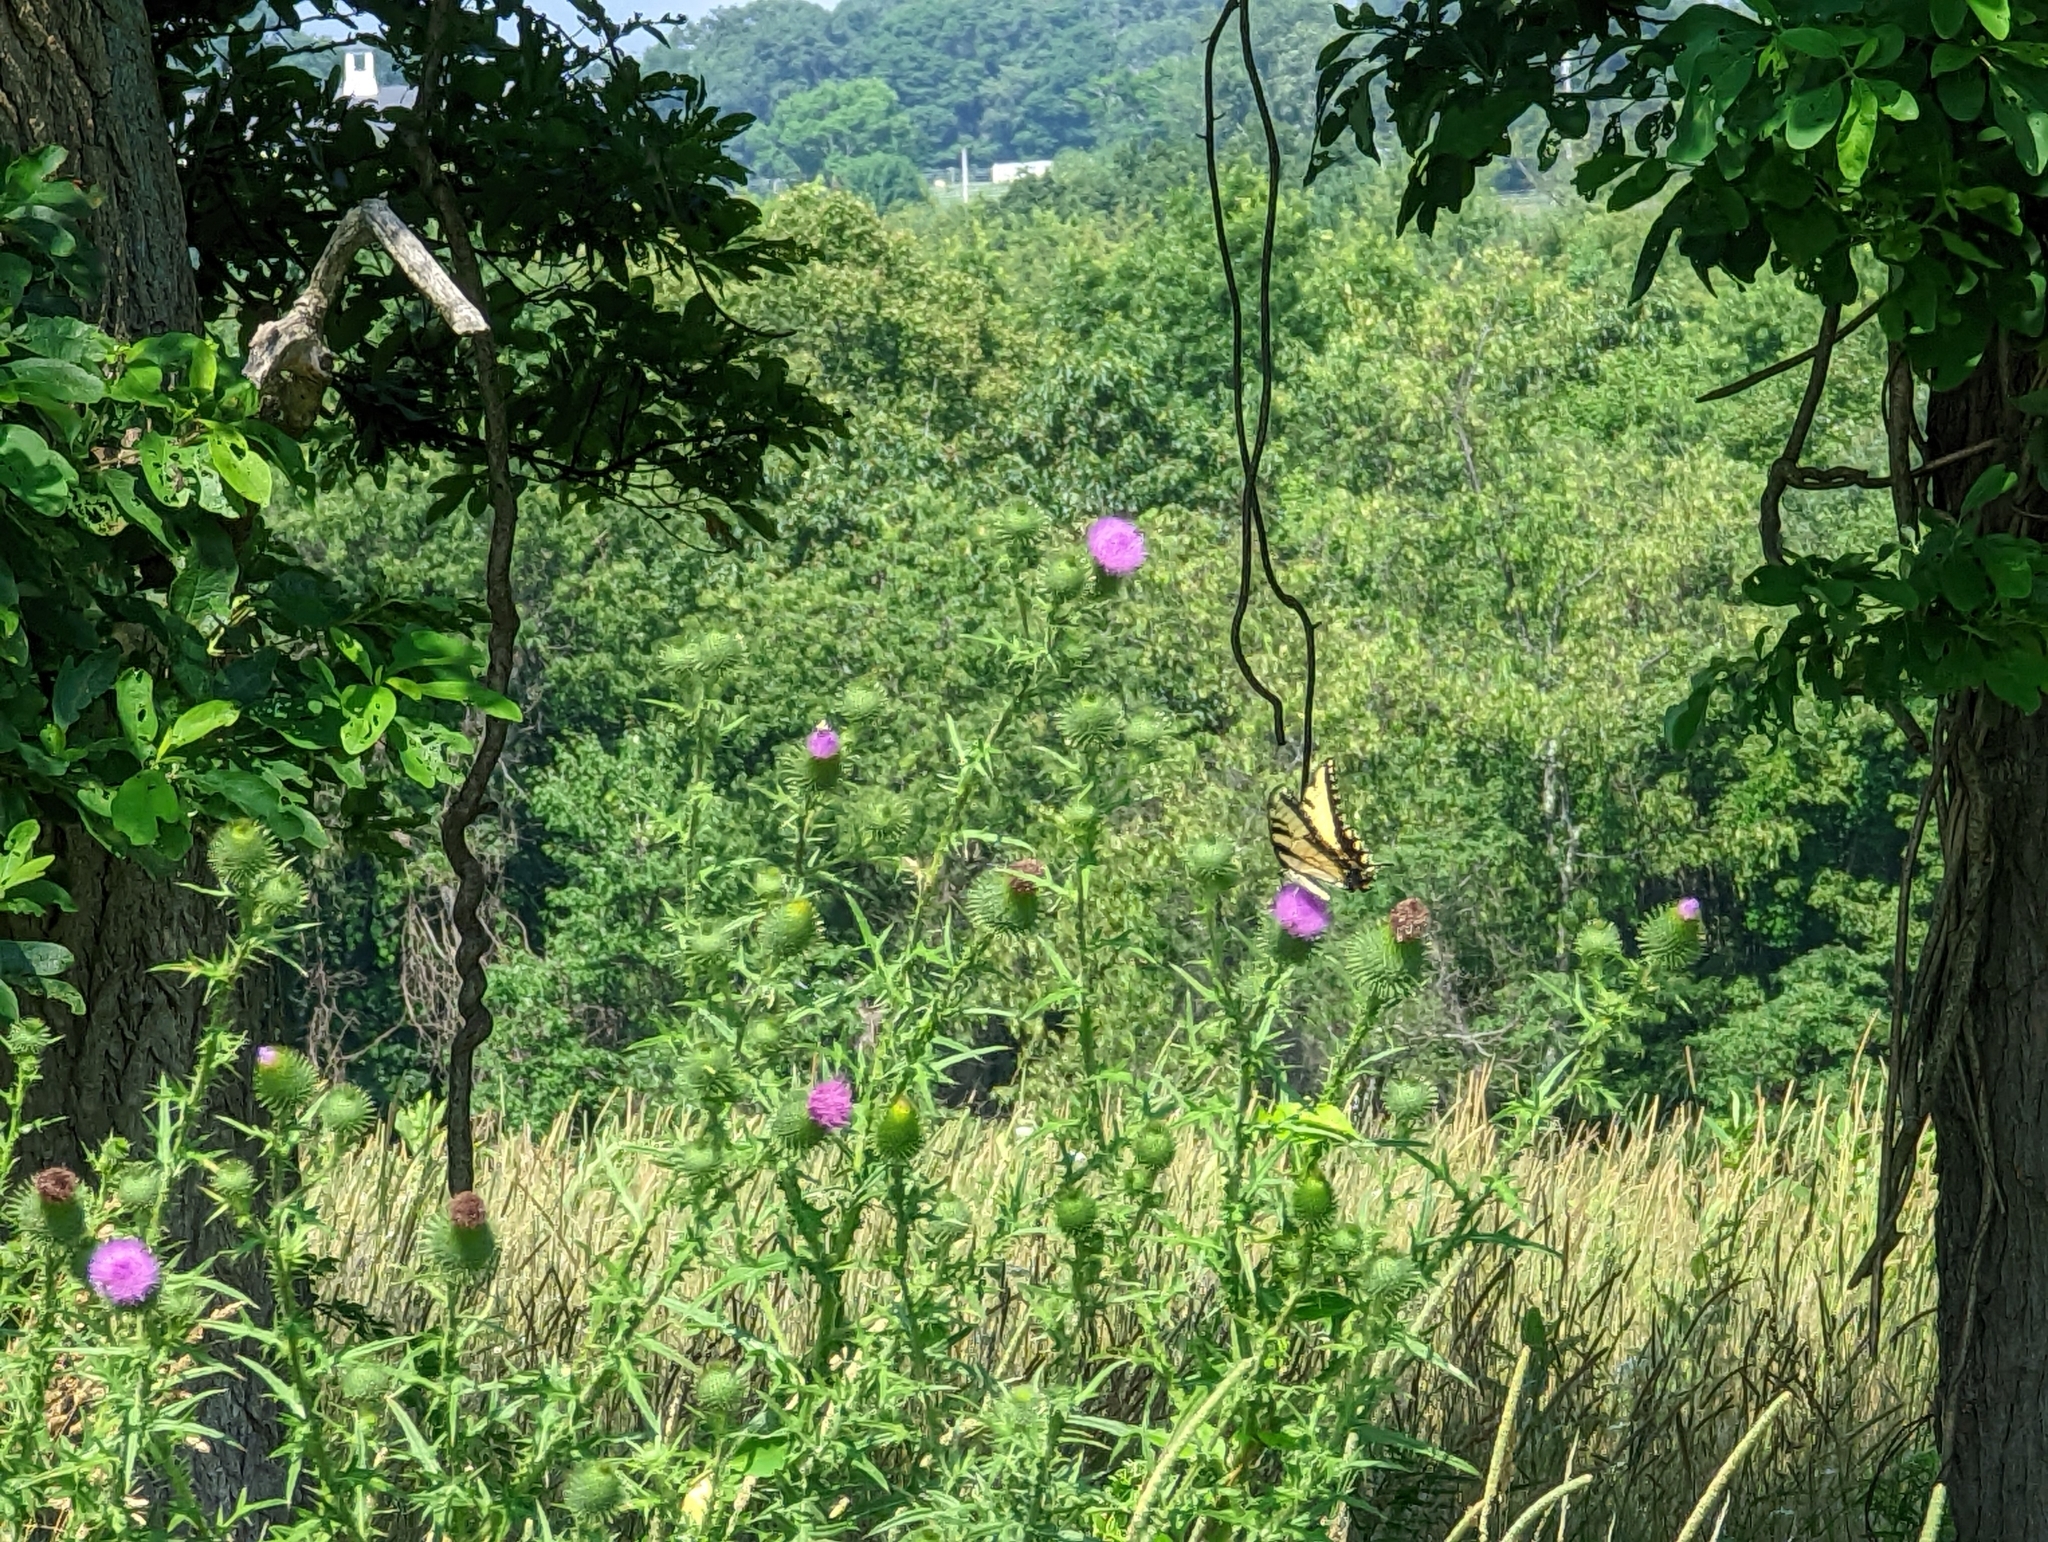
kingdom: Animalia
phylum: Arthropoda
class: Insecta
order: Lepidoptera
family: Papilionidae
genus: Papilio
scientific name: Papilio glaucus
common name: Tiger swallowtail
